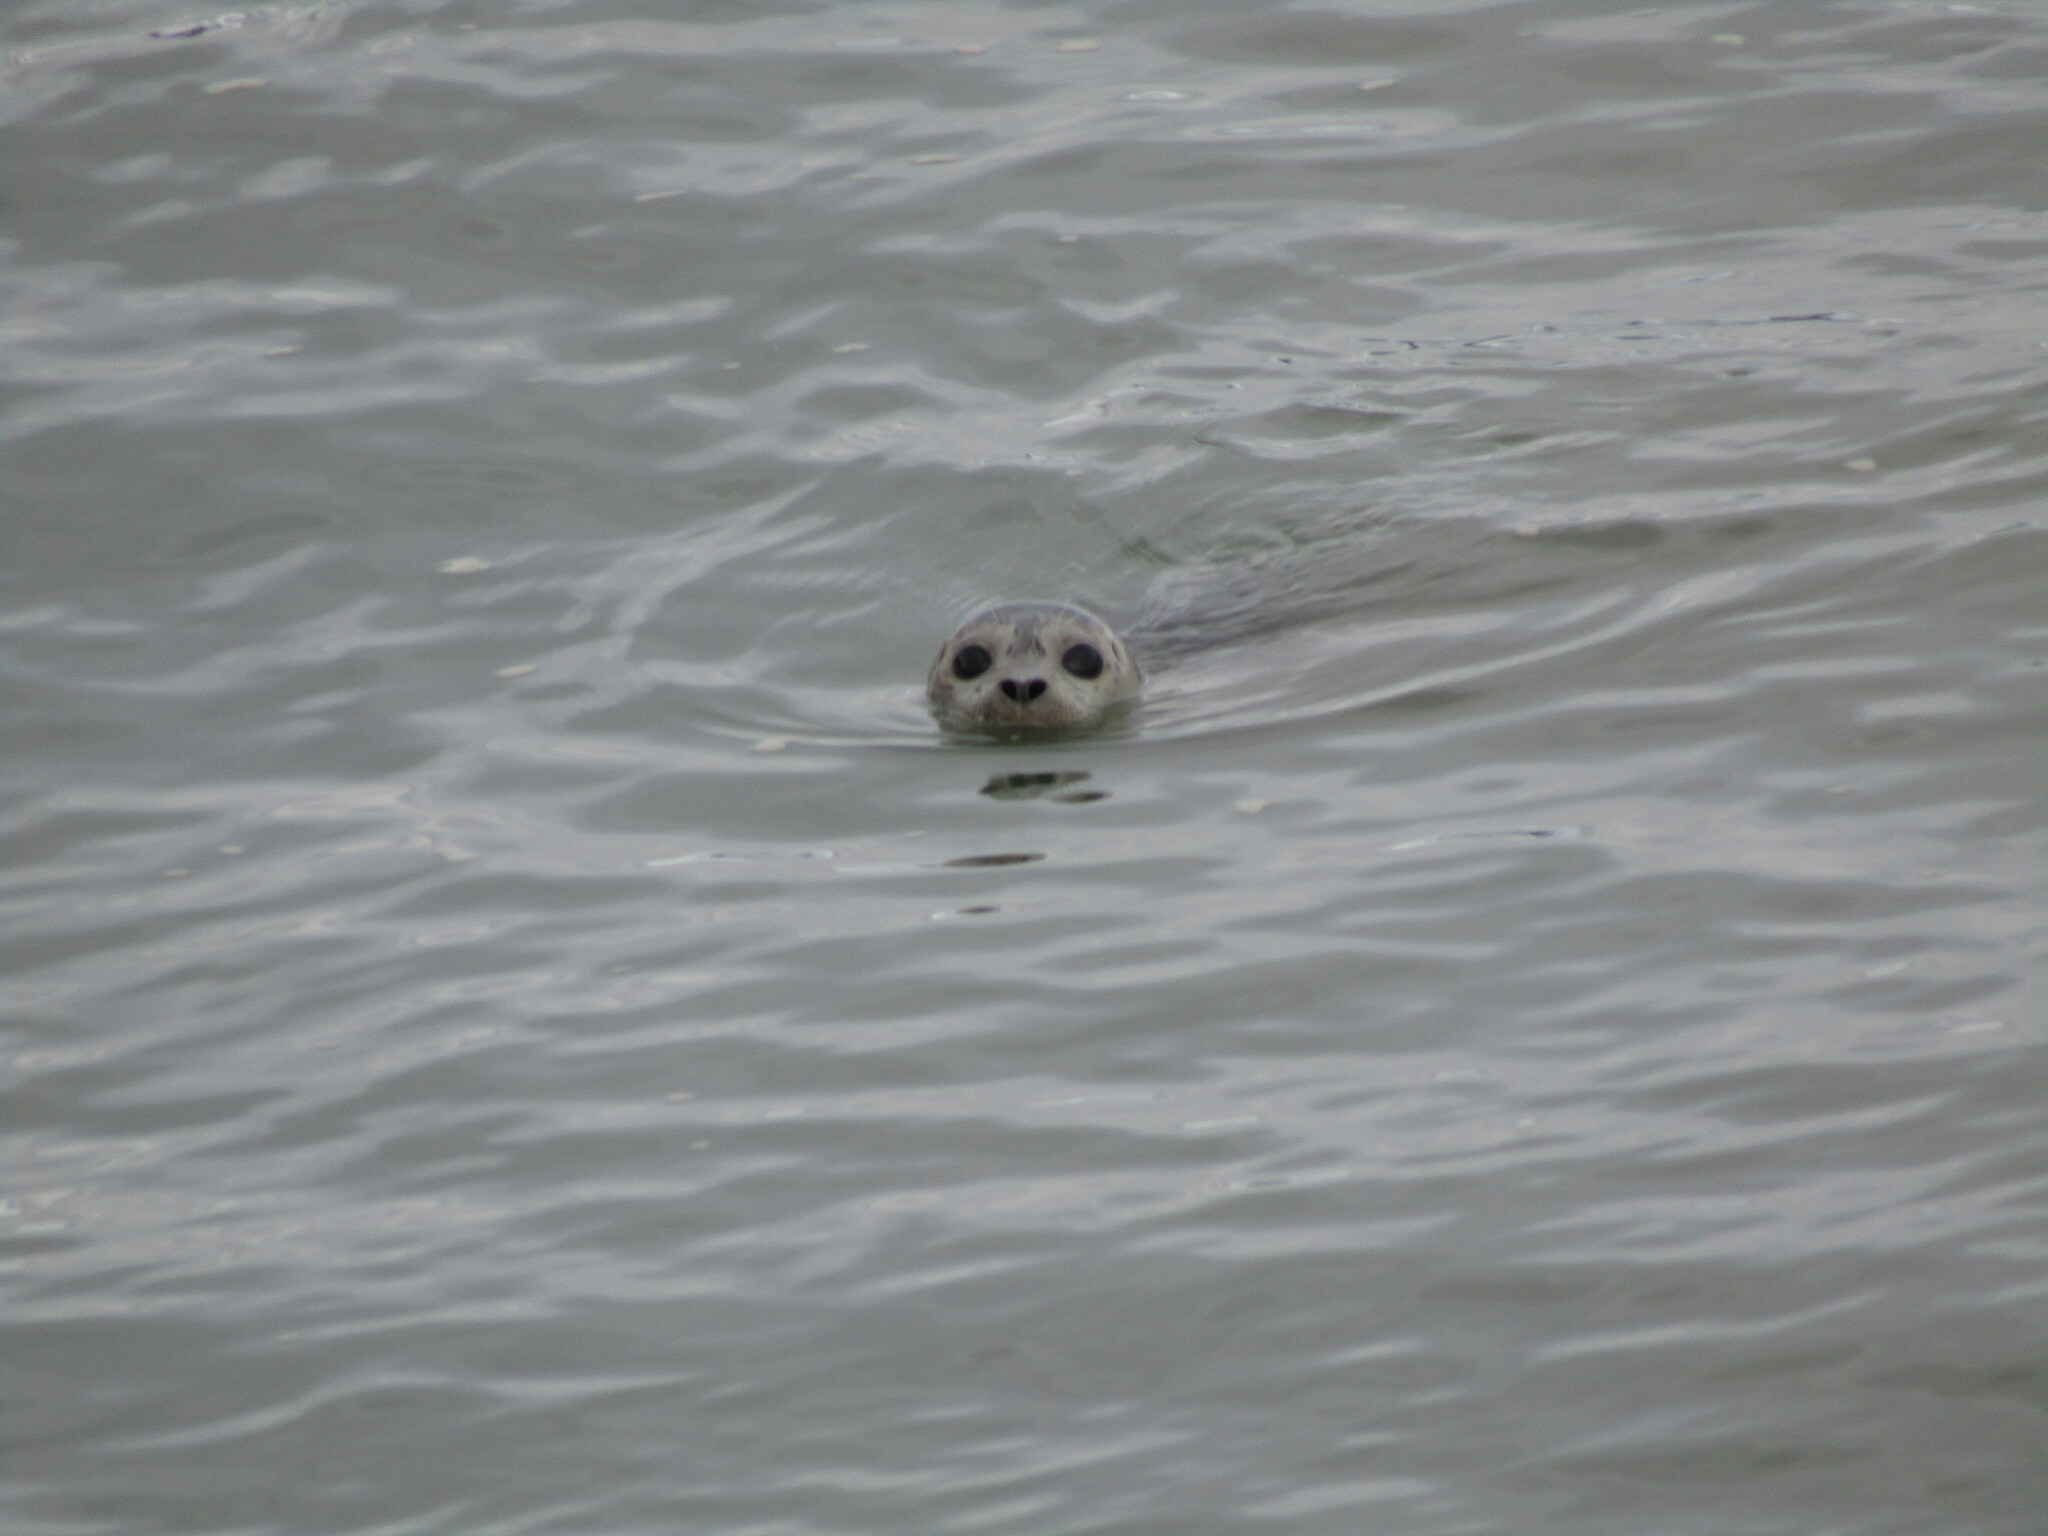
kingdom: Animalia
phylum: Chordata
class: Mammalia
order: Carnivora
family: Phocidae
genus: Phoca
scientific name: Phoca vitulina
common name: Harbor seal
